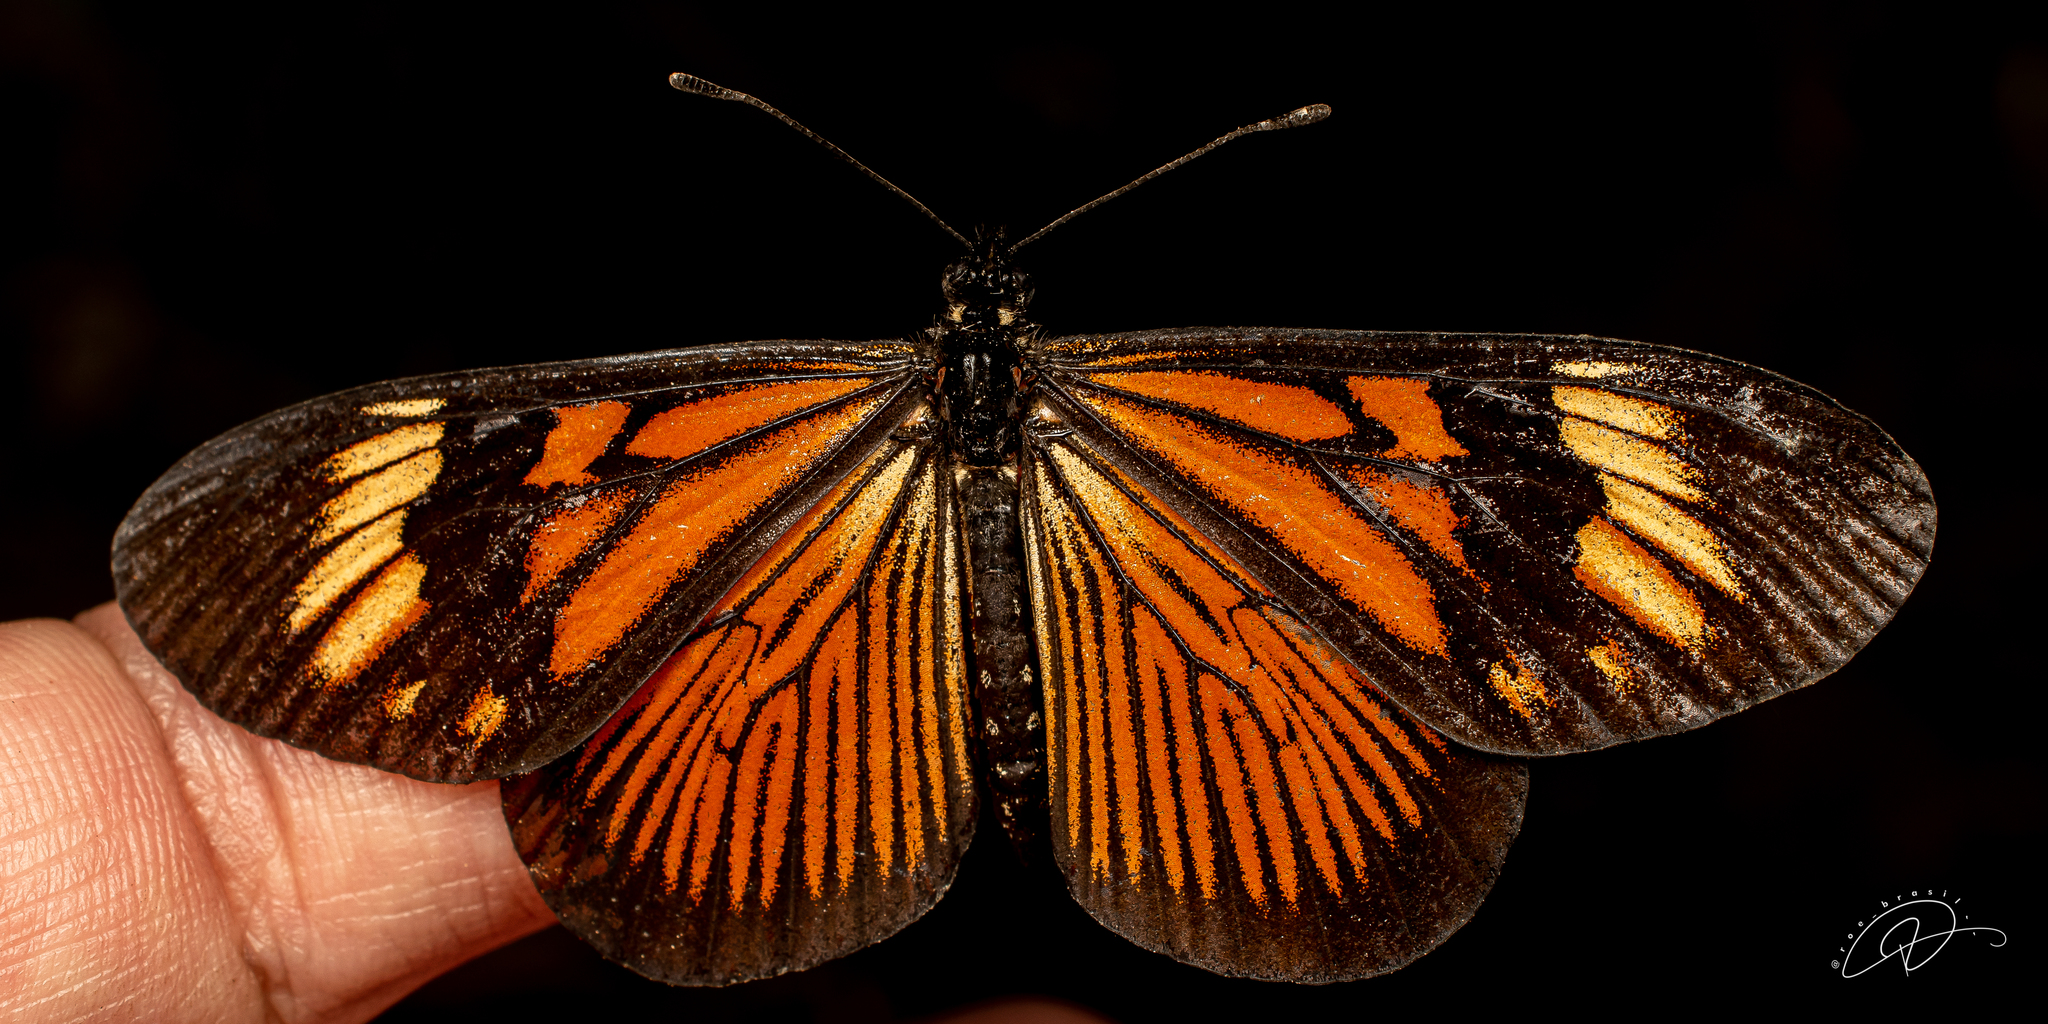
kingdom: Animalia
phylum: Arthropoda
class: Insecta
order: Lepidoptera
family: Nymphalidae
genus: Actinote
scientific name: Actinote pellenea
